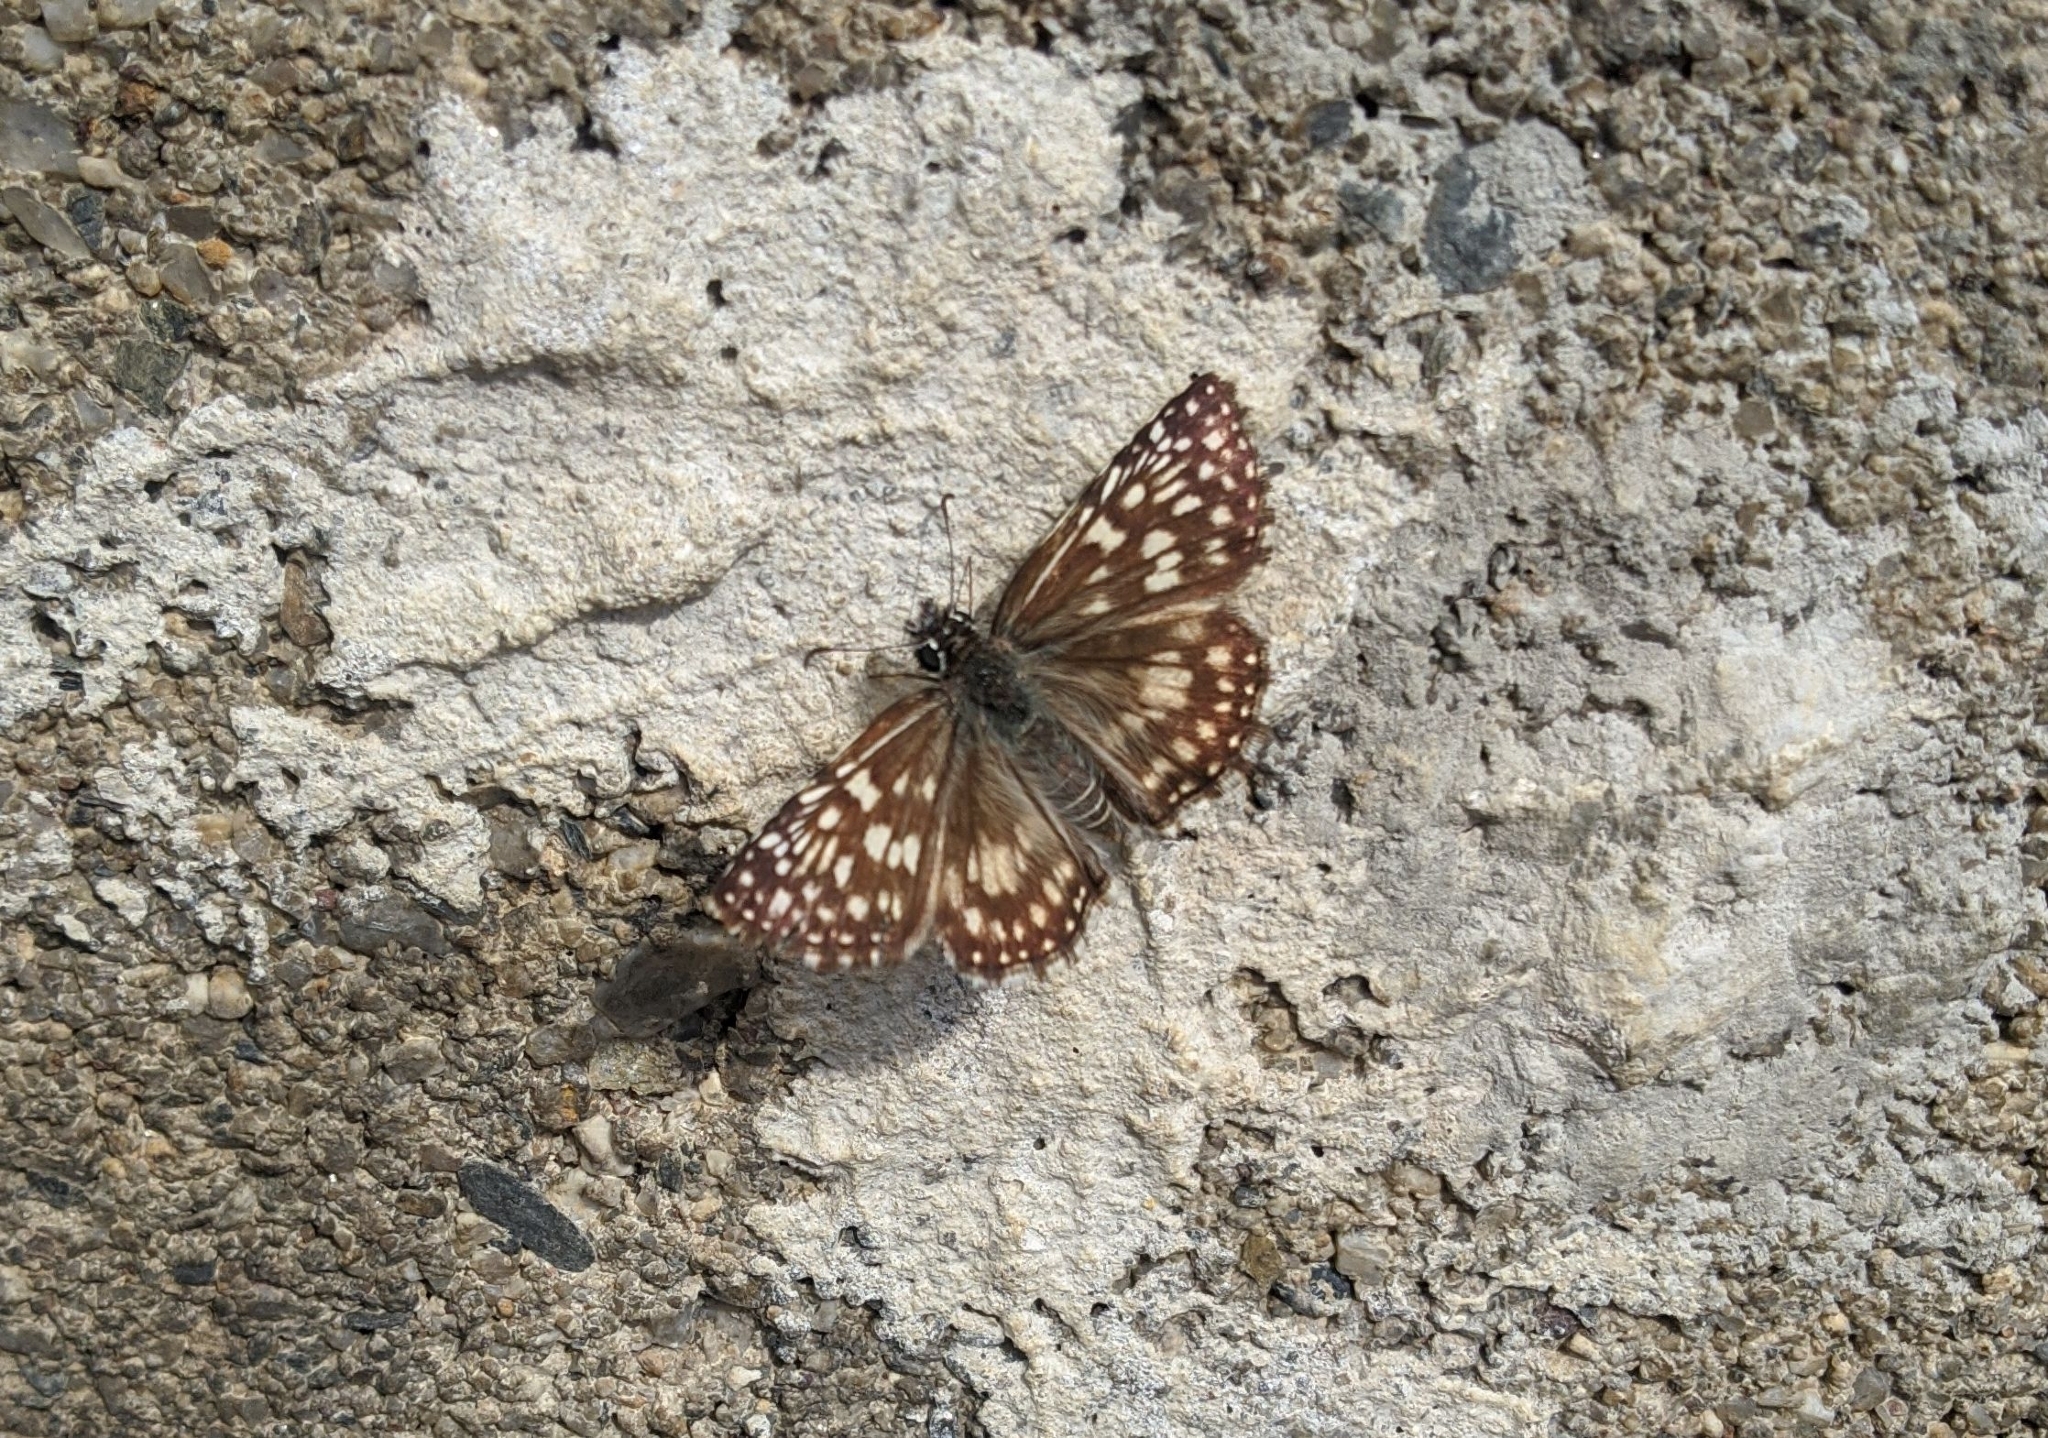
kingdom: Animalia
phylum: Arthropoda
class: Insecta
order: Lepidoptera
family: Hesperiidae
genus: Pyrgus
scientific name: Pyrgus oileus
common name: Tropical checkered-skipper
